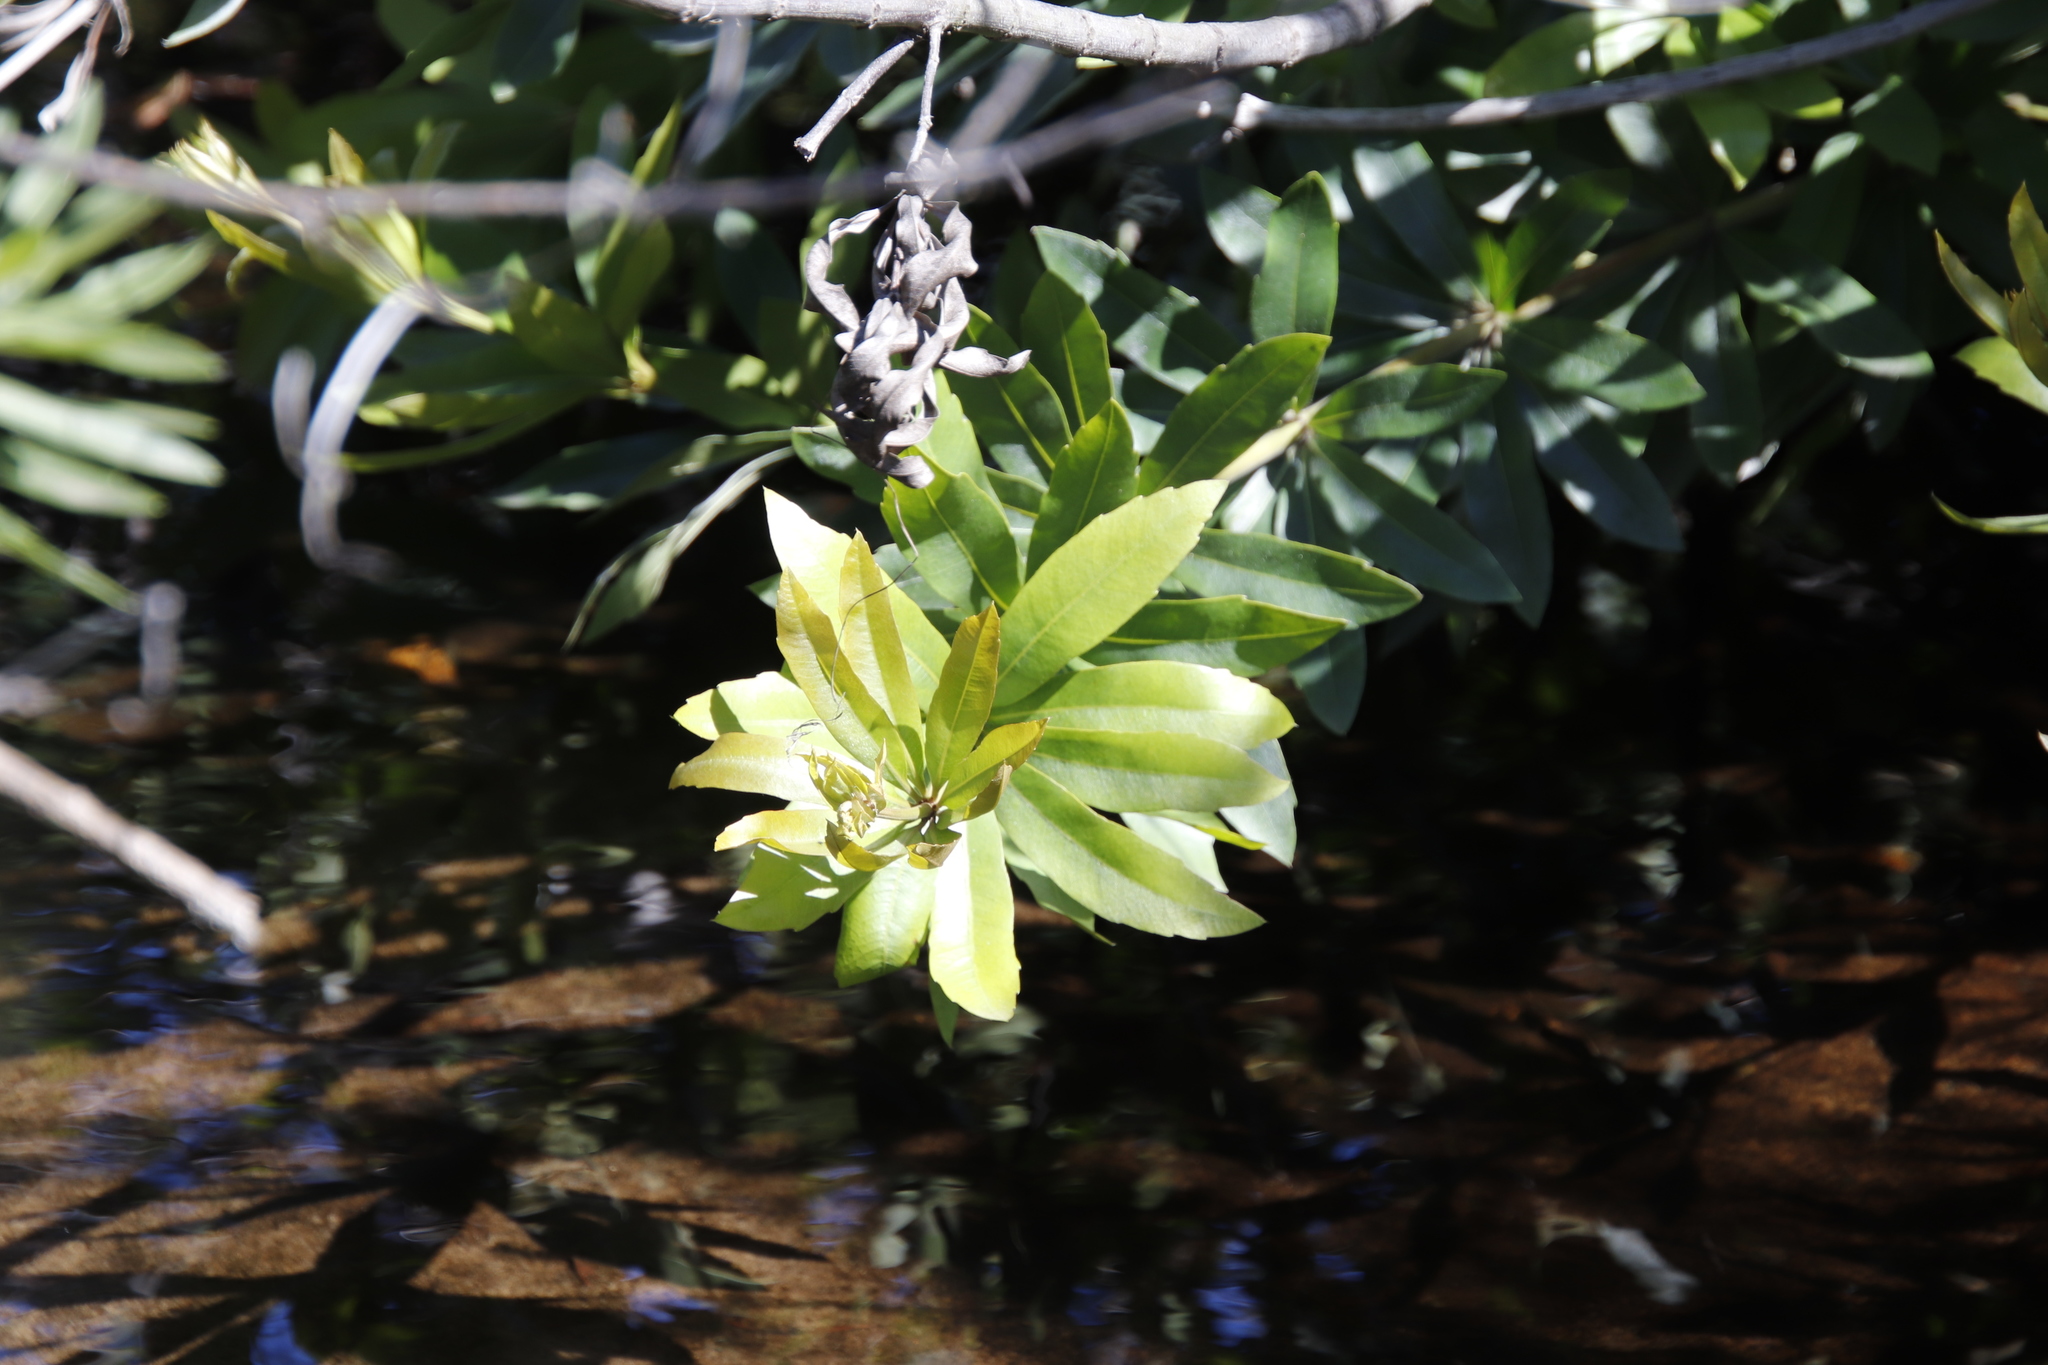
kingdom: Plantae
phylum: Tracheophyta
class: Magnoliopsida
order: Proteales
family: Proteaceae
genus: Brabejum
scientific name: Brabejum stellatifolium
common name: Wild almond
